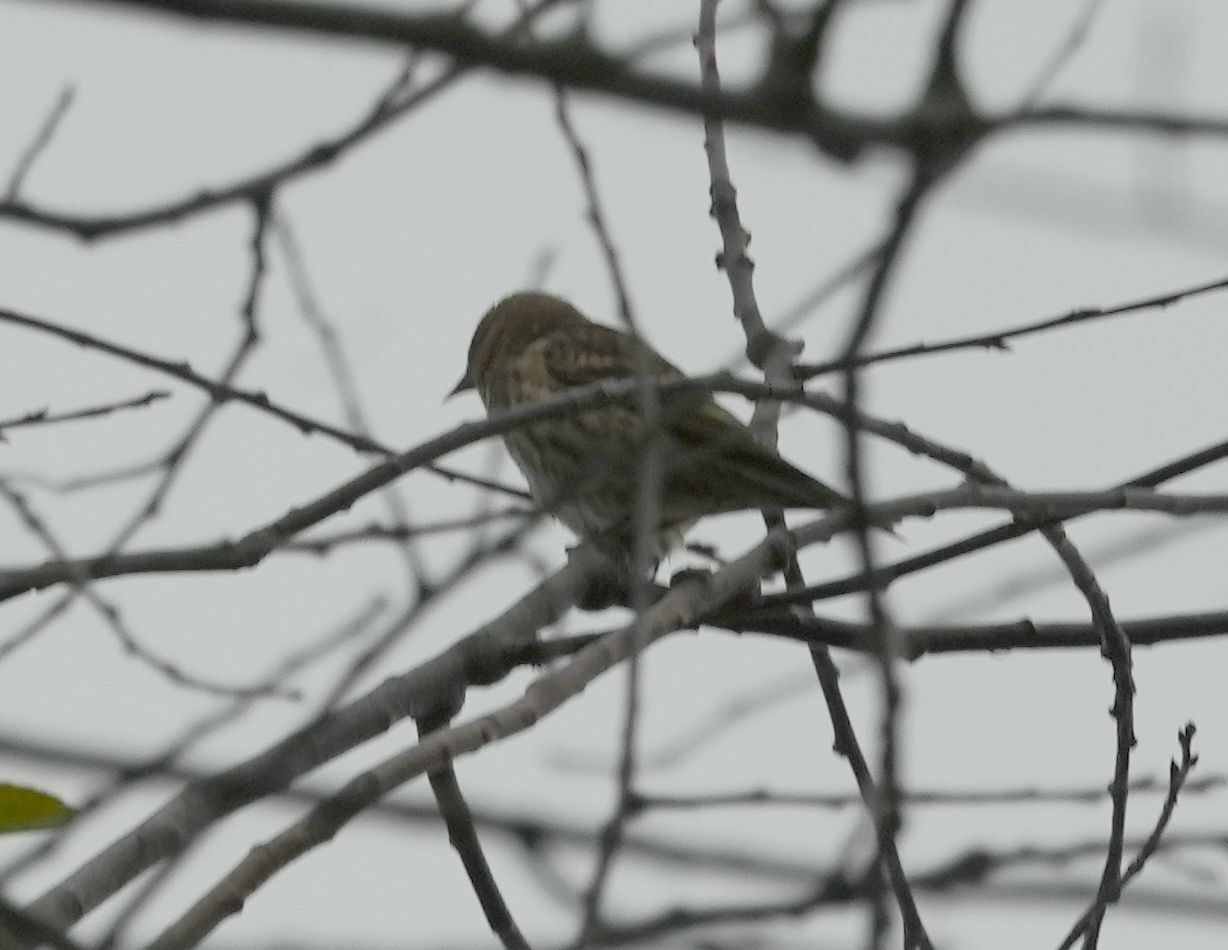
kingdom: Animalia
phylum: Chordata
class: Aves
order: Passeriformes
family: Fringillidae
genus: Spinus
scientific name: Spinus pinus
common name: Pine siskin
